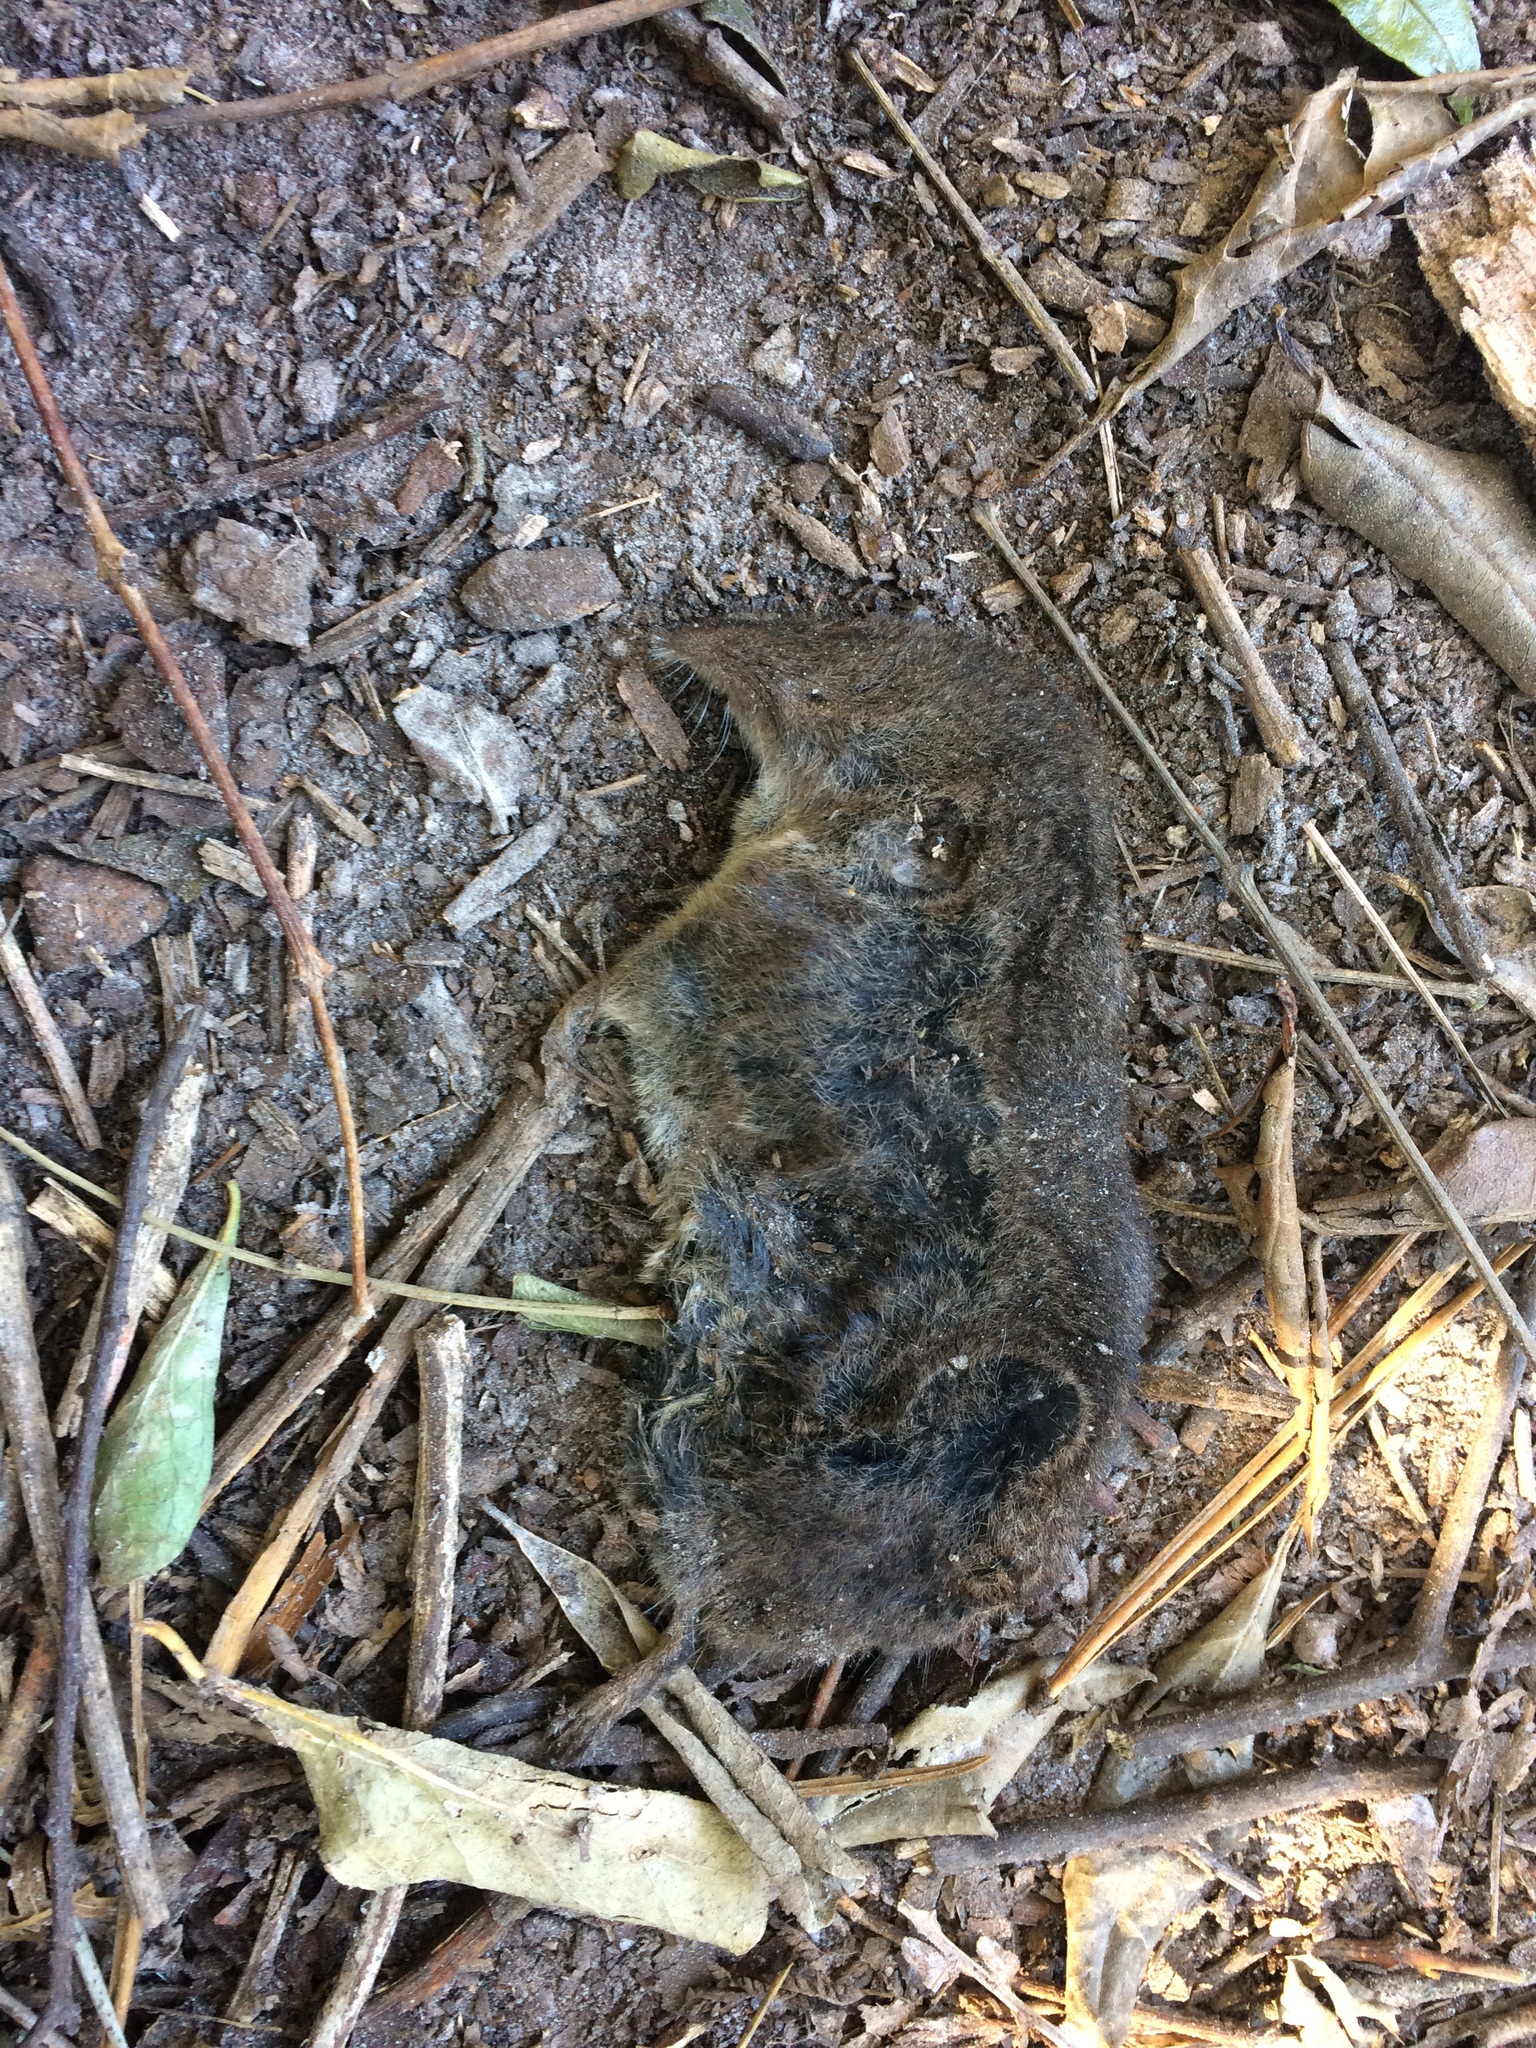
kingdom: Animalia
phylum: Chordata
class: Mammalia
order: Soricomorpha
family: Soricidae
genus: Myosorex
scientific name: Myosorex varius
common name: Forest shrew
